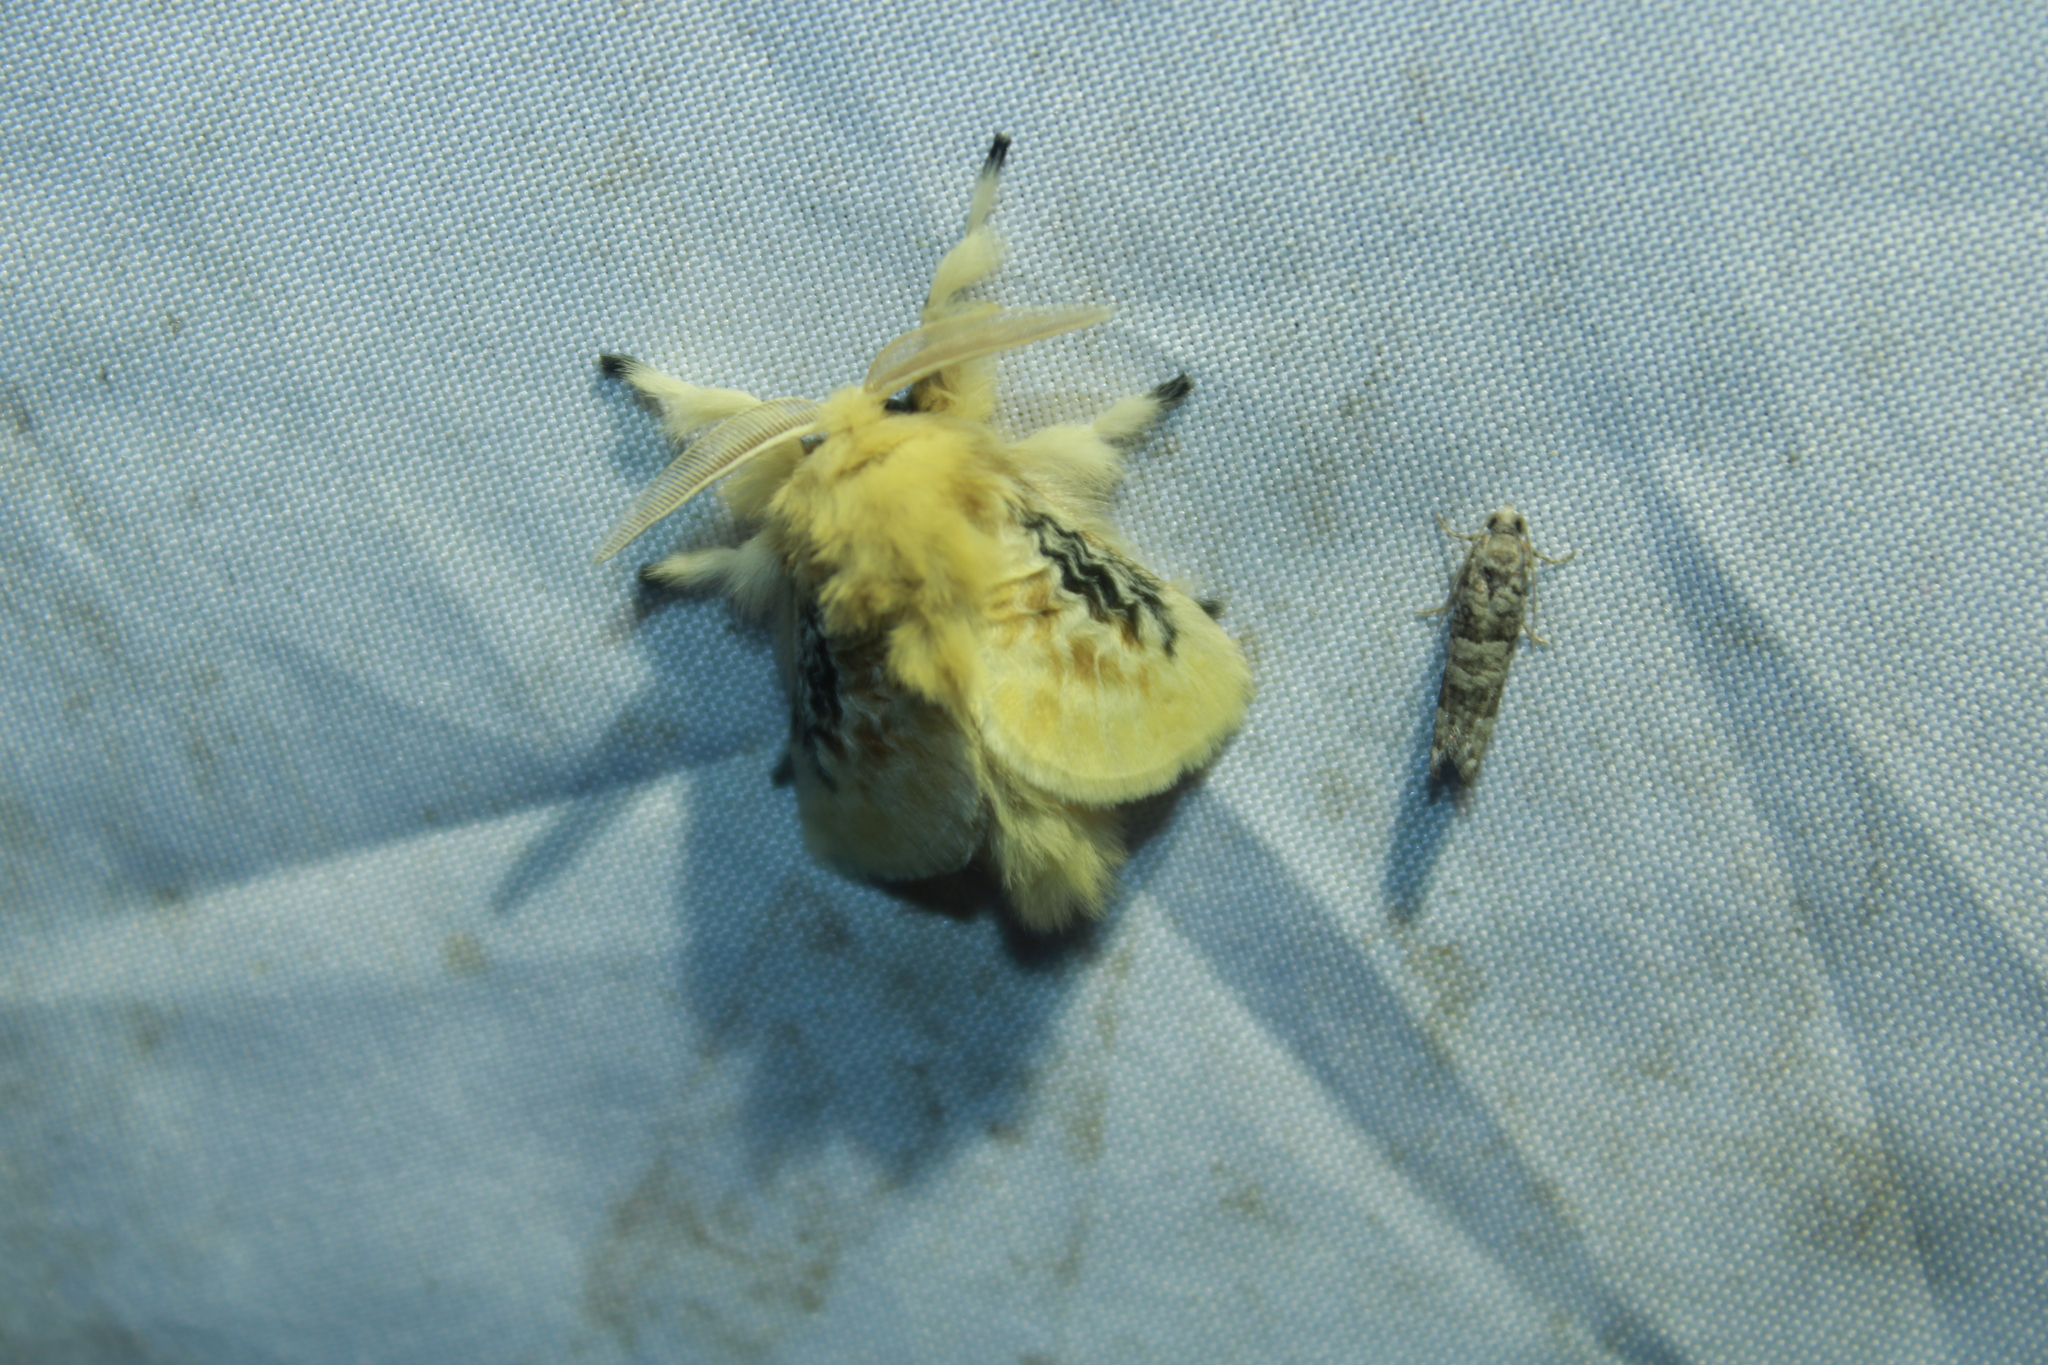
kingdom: Animalia
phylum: Arthropoda
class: Insecta
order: Lepidoptera
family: Megalopygidae
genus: Megalopyge
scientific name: Megalopyge crispata
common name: Black-waved flannel moth
